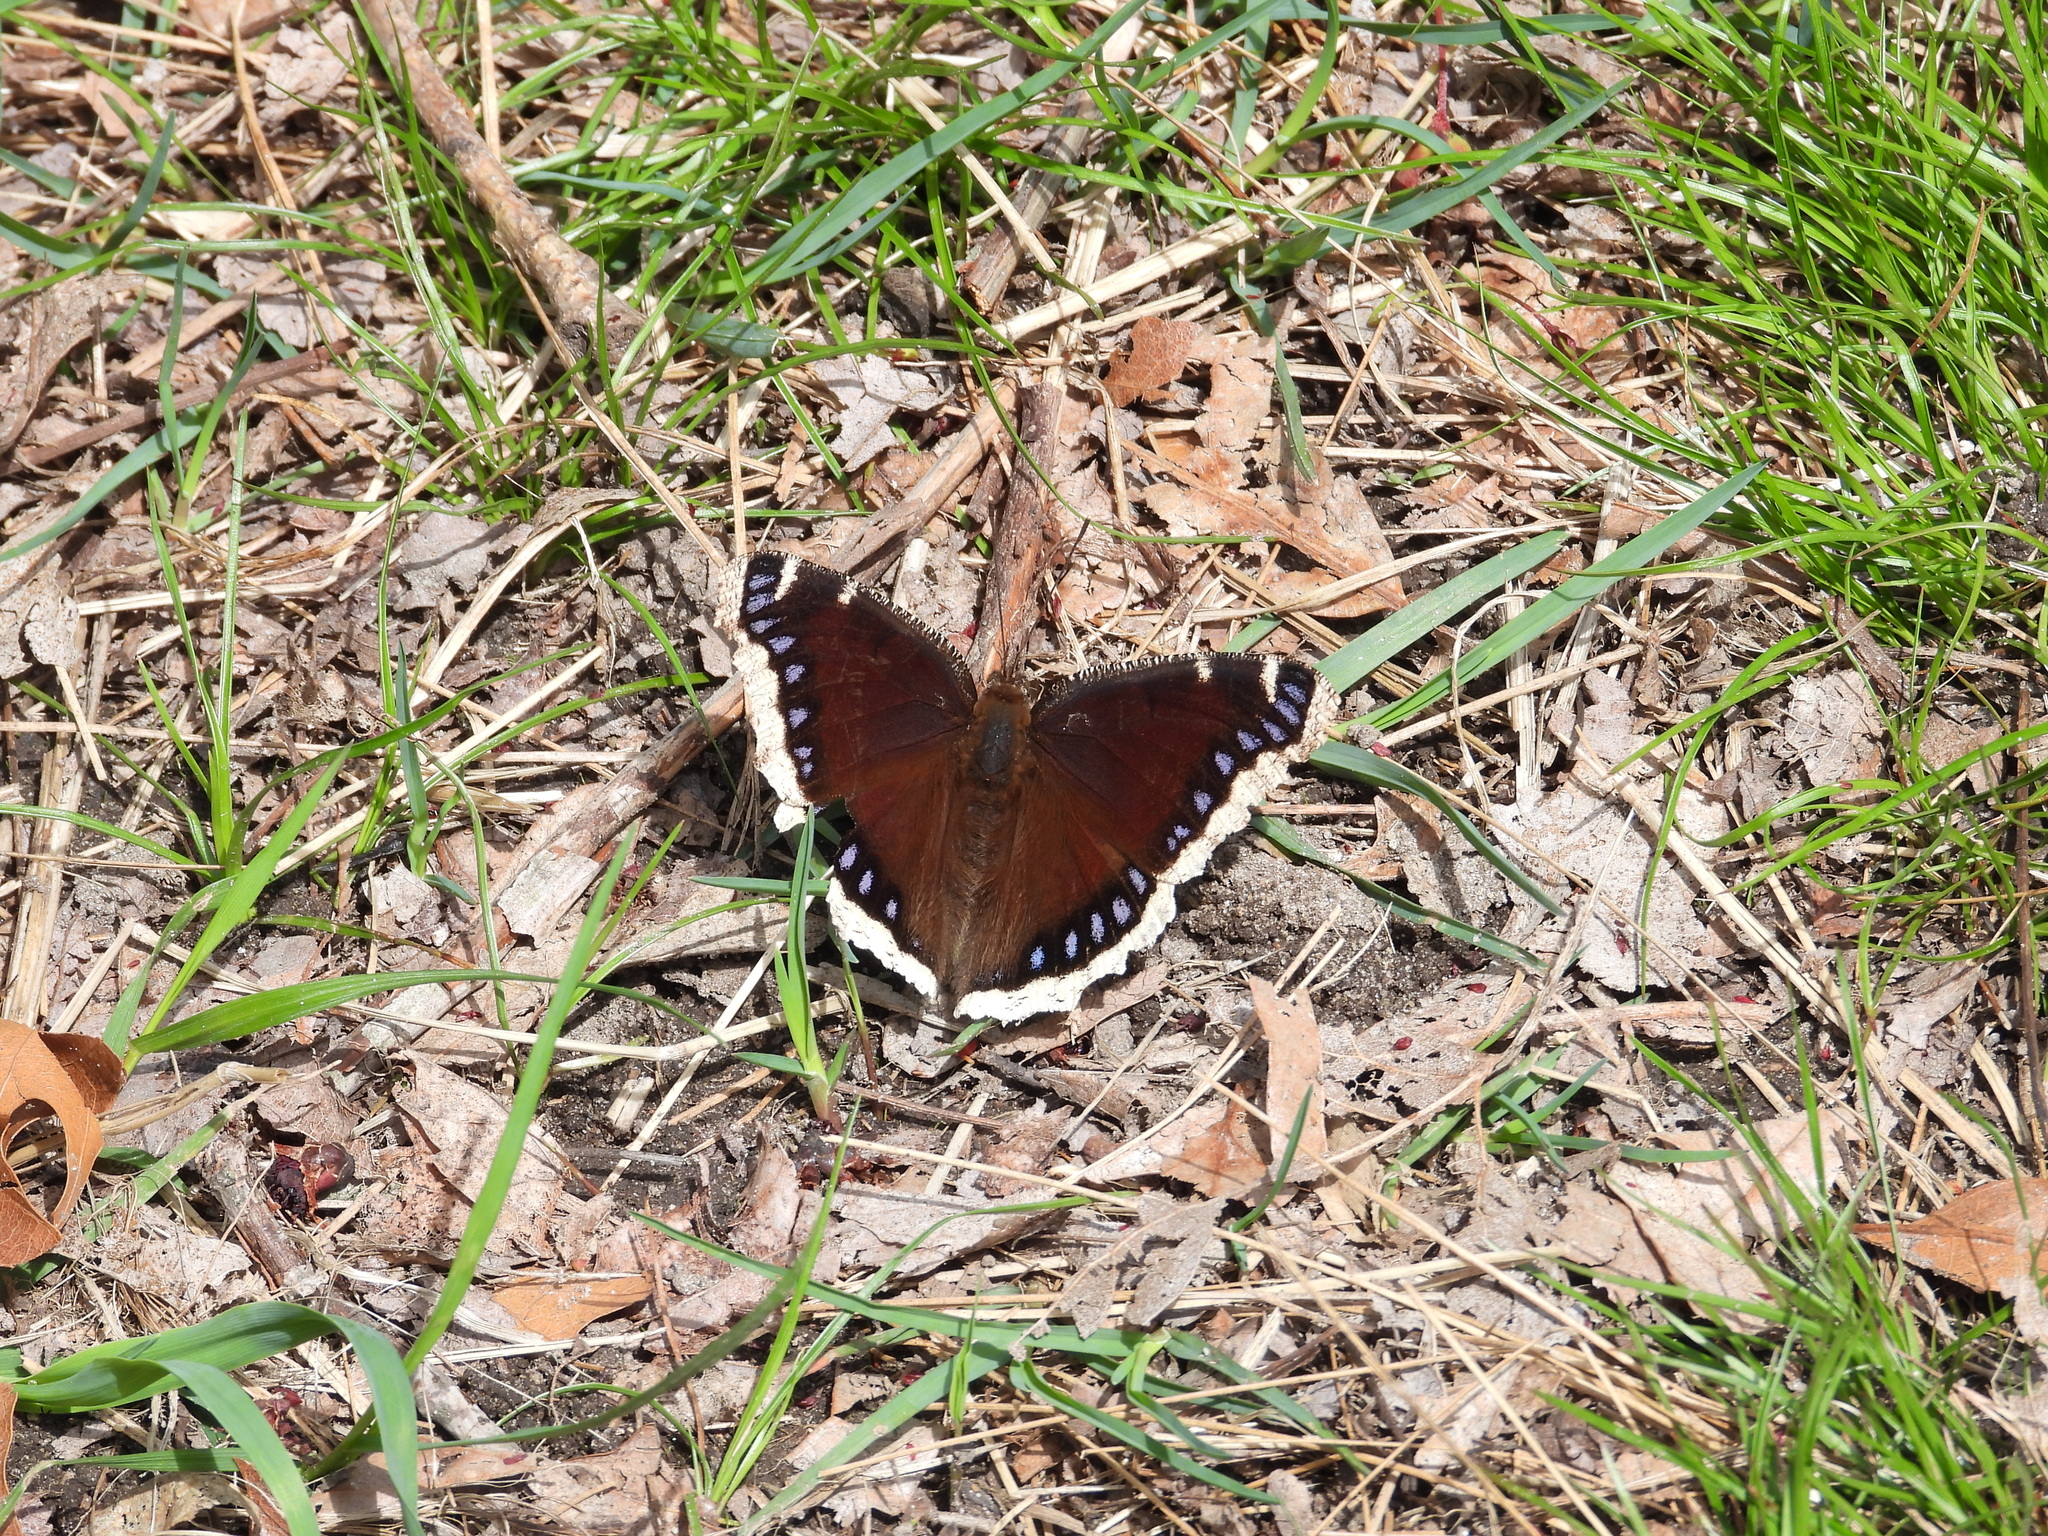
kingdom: Animalia
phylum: Arthropoda
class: Insecta
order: Lepidoptera
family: Nymphalidae
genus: Nymphalis
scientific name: Nymphalis antiopa
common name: Camberwell beauty
